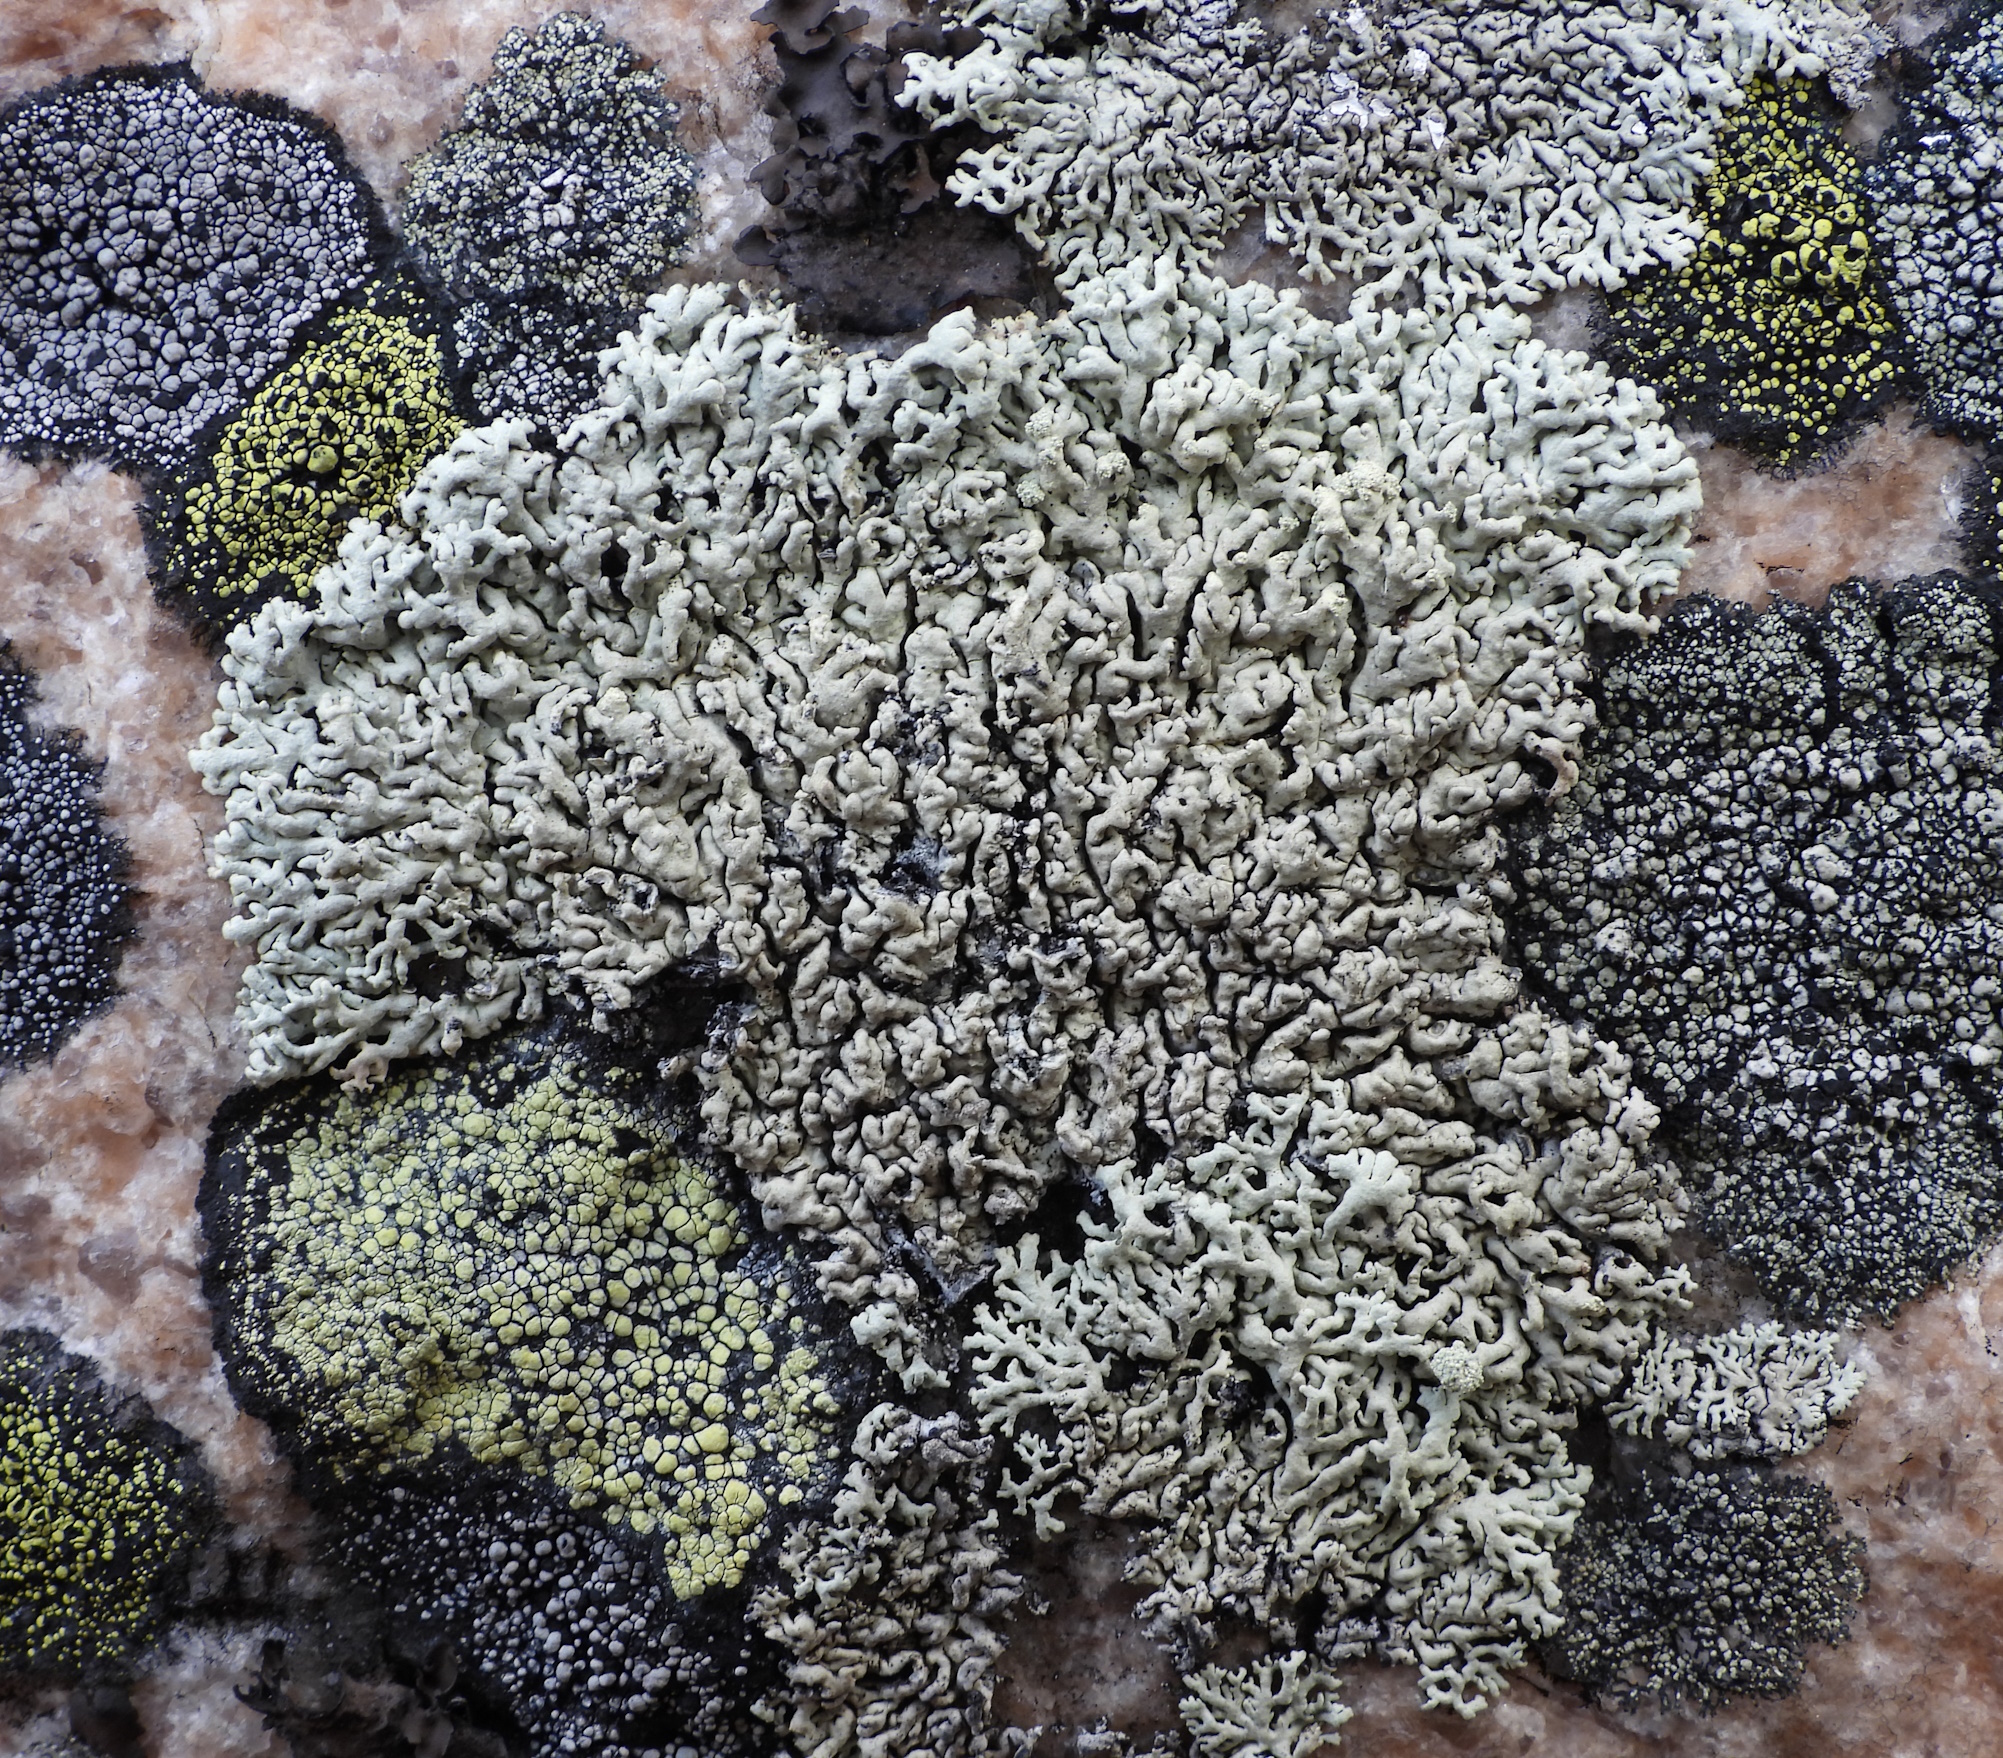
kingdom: Fungi
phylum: Ascomycota
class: Lecanoromycetes
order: Lecanorales
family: Parmeliaceae
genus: Arctoparmelia
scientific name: Arctoparmelia incurva
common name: Bent ring lichen
